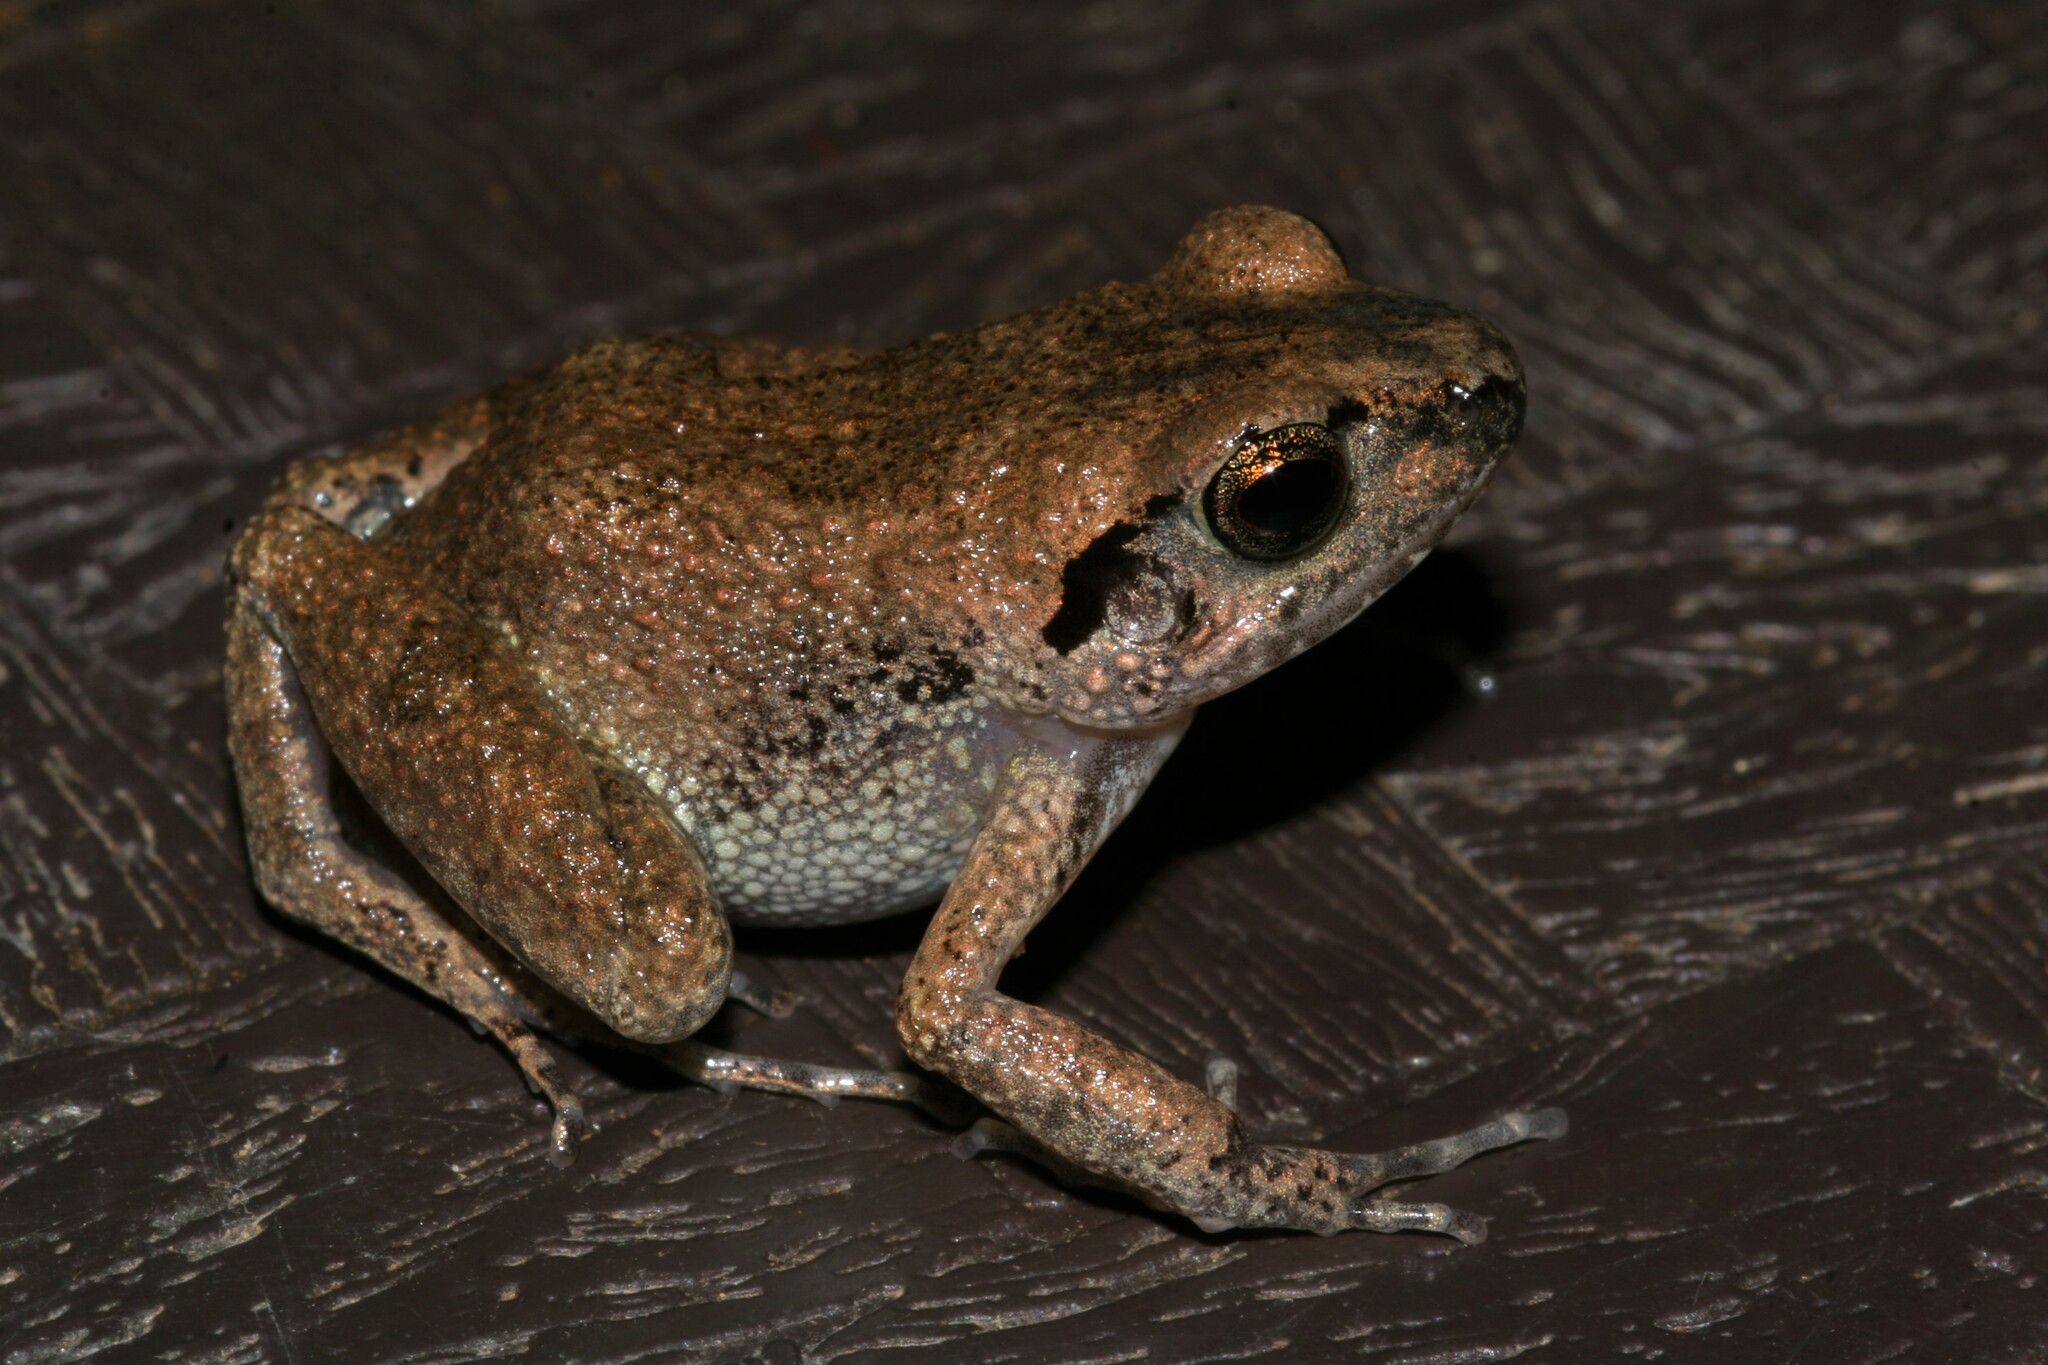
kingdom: Animalia
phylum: Chordata
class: Amphibia
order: Anura
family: Arthroleptidae
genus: Arthroleptis
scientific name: Arthroleptis poecilonotus
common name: West african screeching frog
